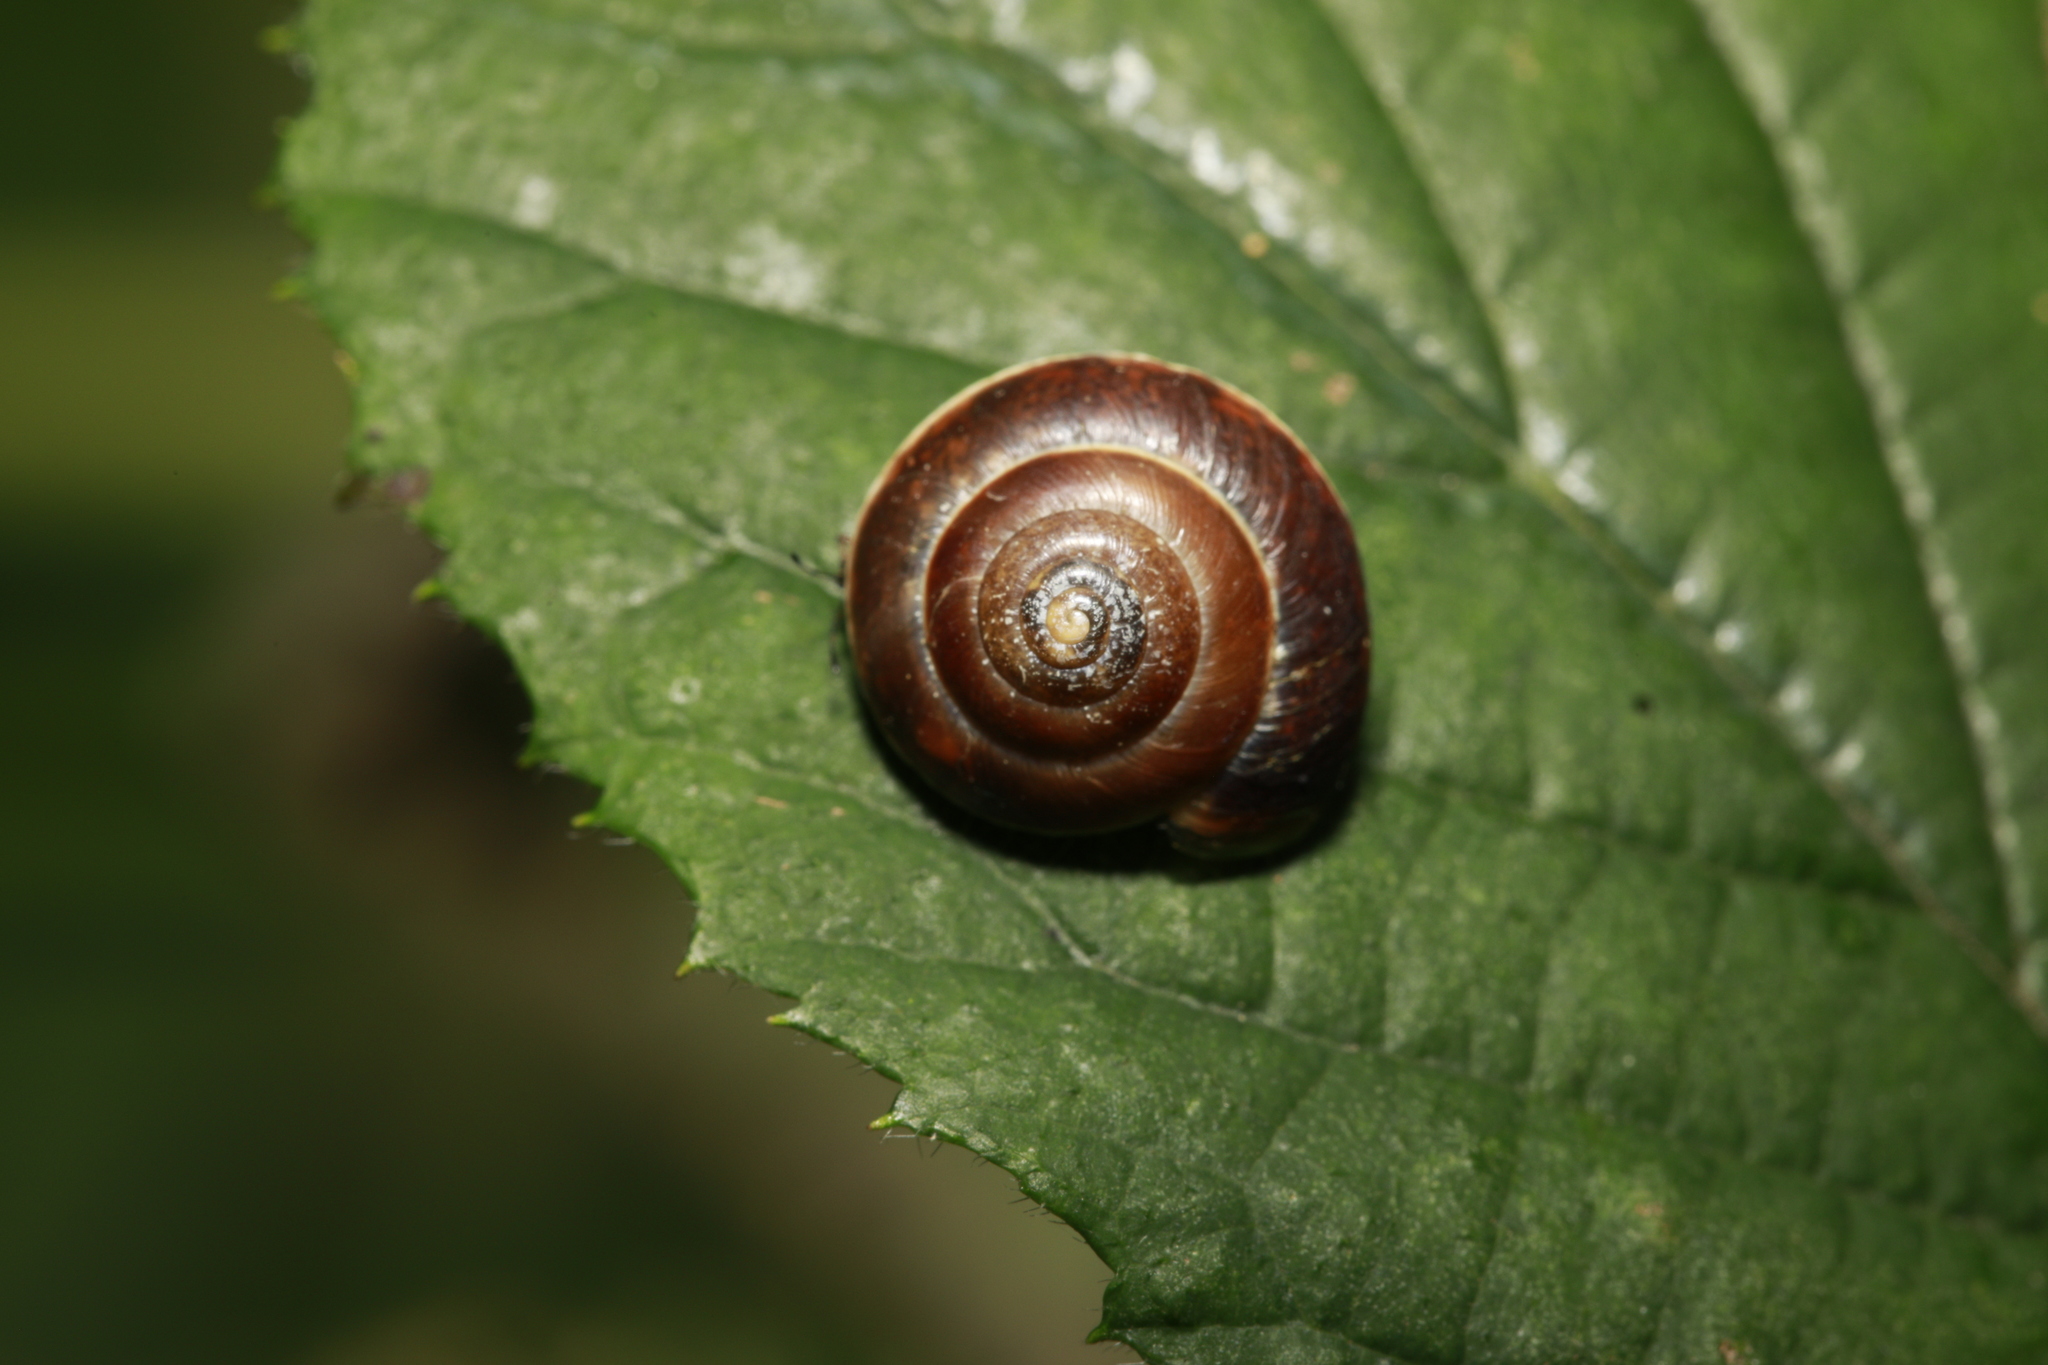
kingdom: Animalia
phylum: Mollusca
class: Gastropoda
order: Stylommatophora
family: Hygromiidae
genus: Hygromia
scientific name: Hygromia cinctella
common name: Girdled snail
